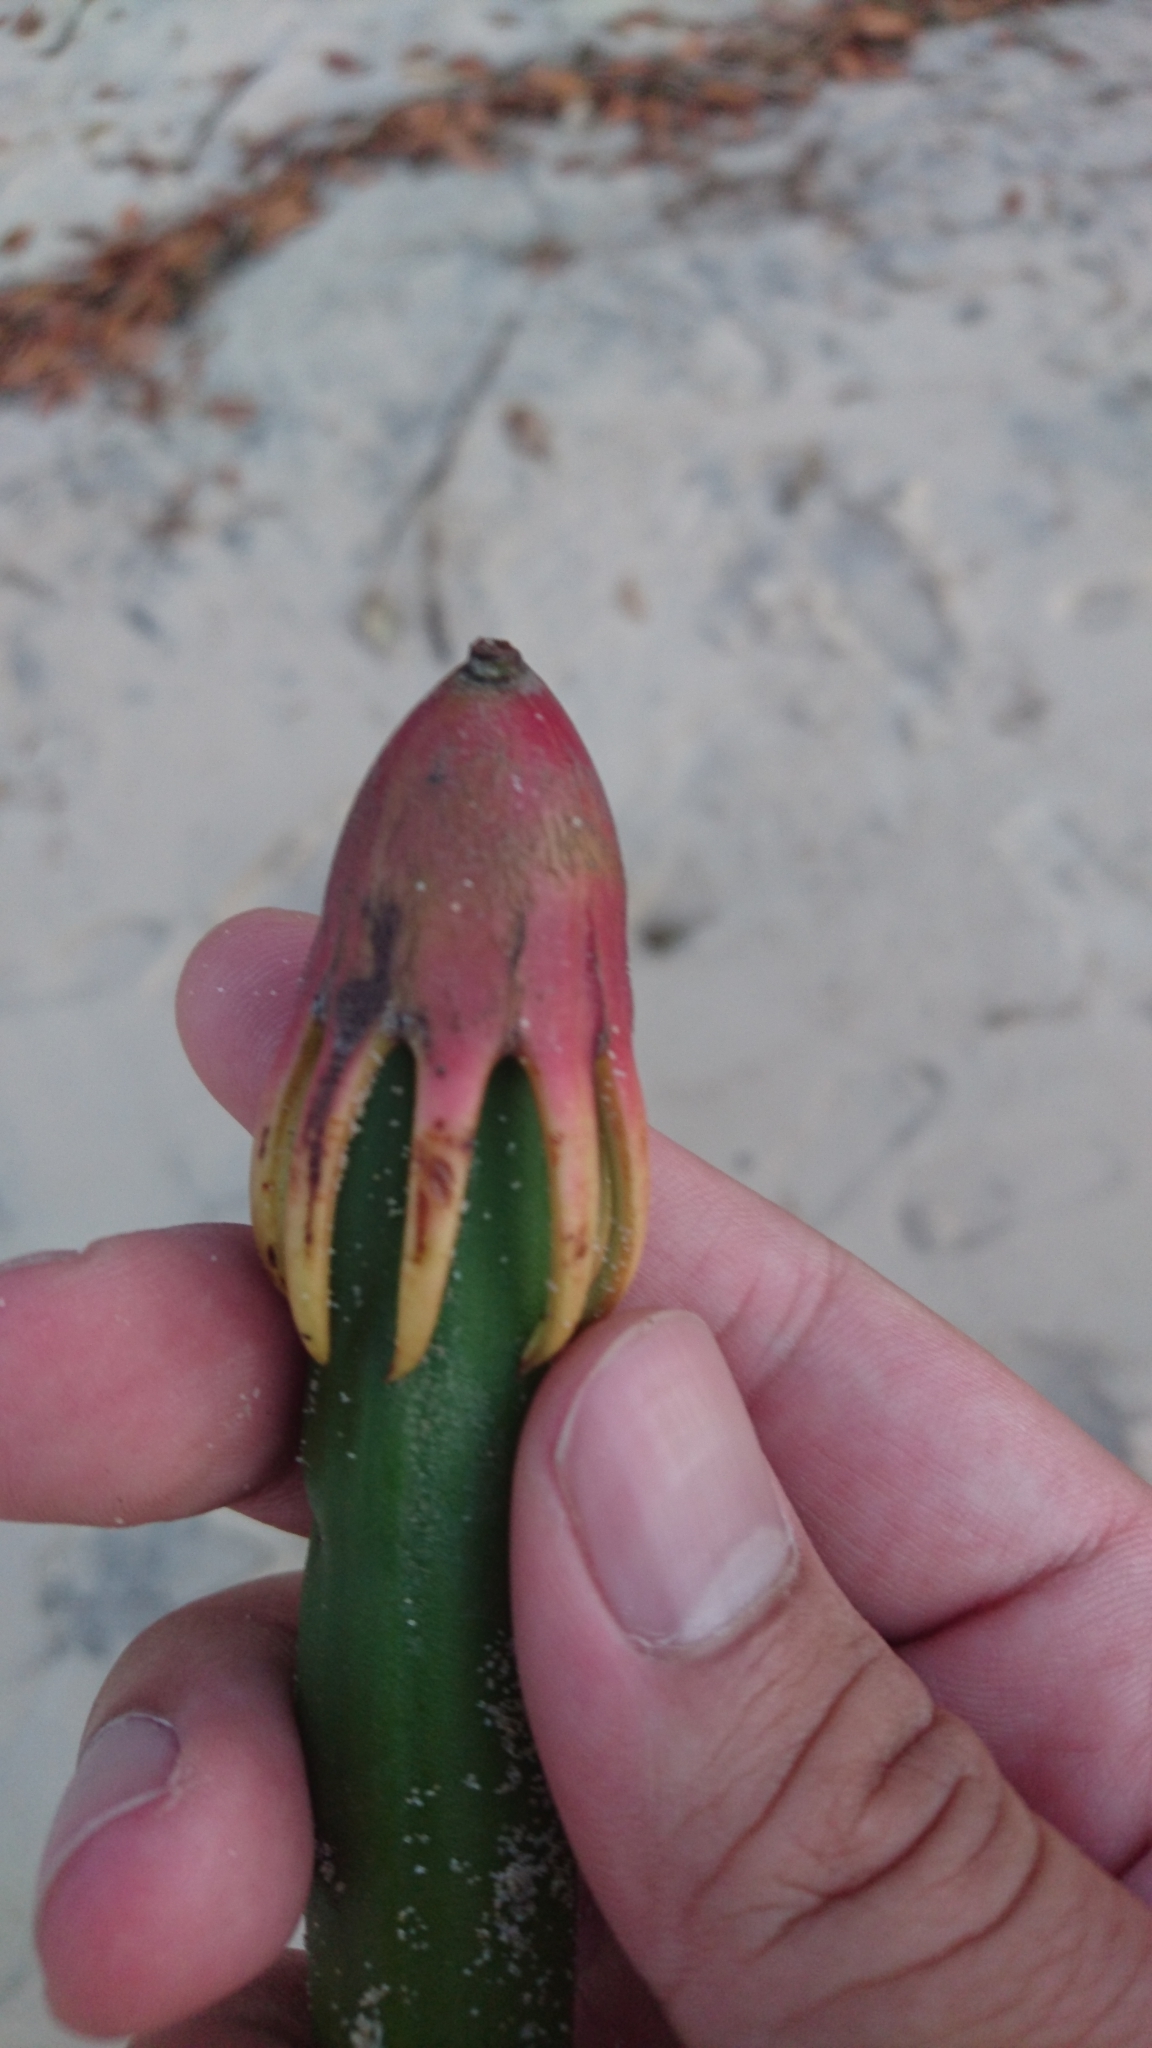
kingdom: Plantae
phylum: Tracheophyta
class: Magnoliopsida
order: Malpighiales
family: Rhizophoraceae
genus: Bruguiera
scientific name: Bruguiera gymnorhiza
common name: Oriental mangrove
